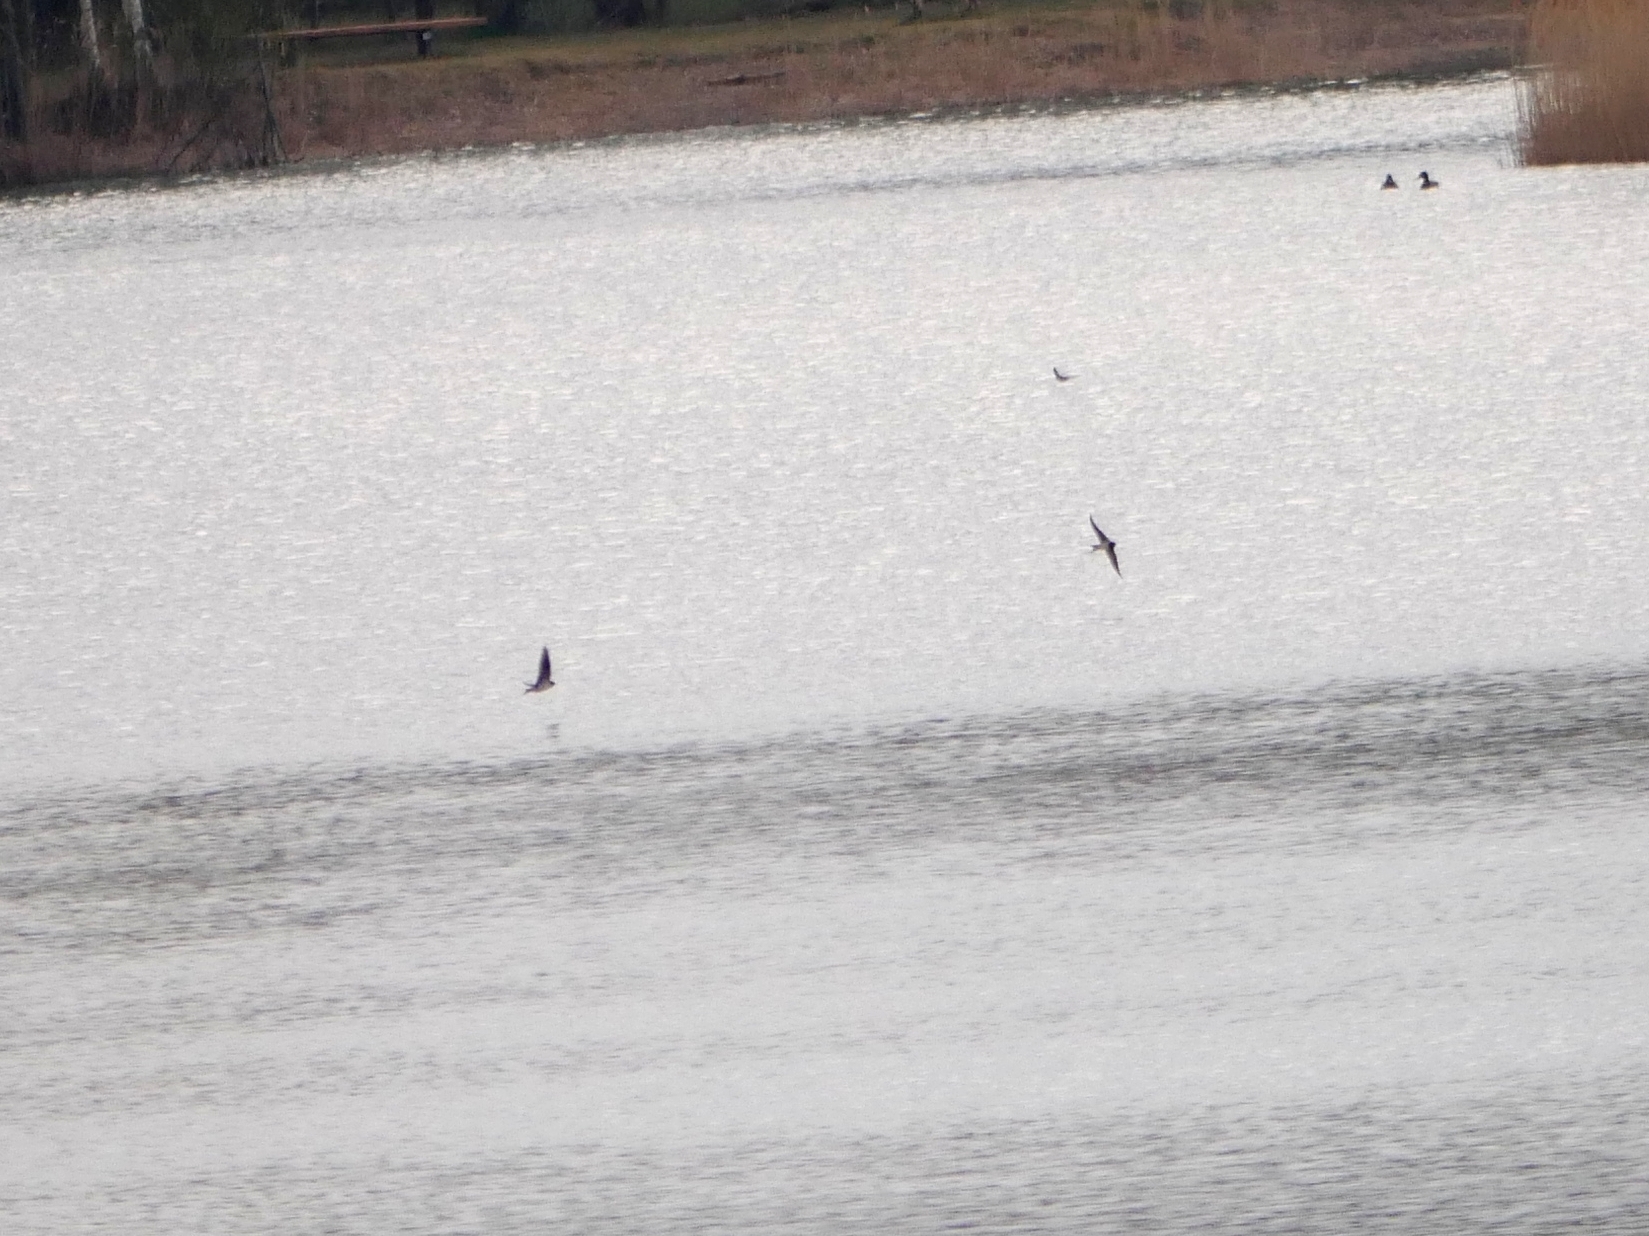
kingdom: Animalia
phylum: Chordata
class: Aves
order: Passeriformes
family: Hirundinidae
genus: Hirundo
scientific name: Hirundo rustica
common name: Barn swallow
